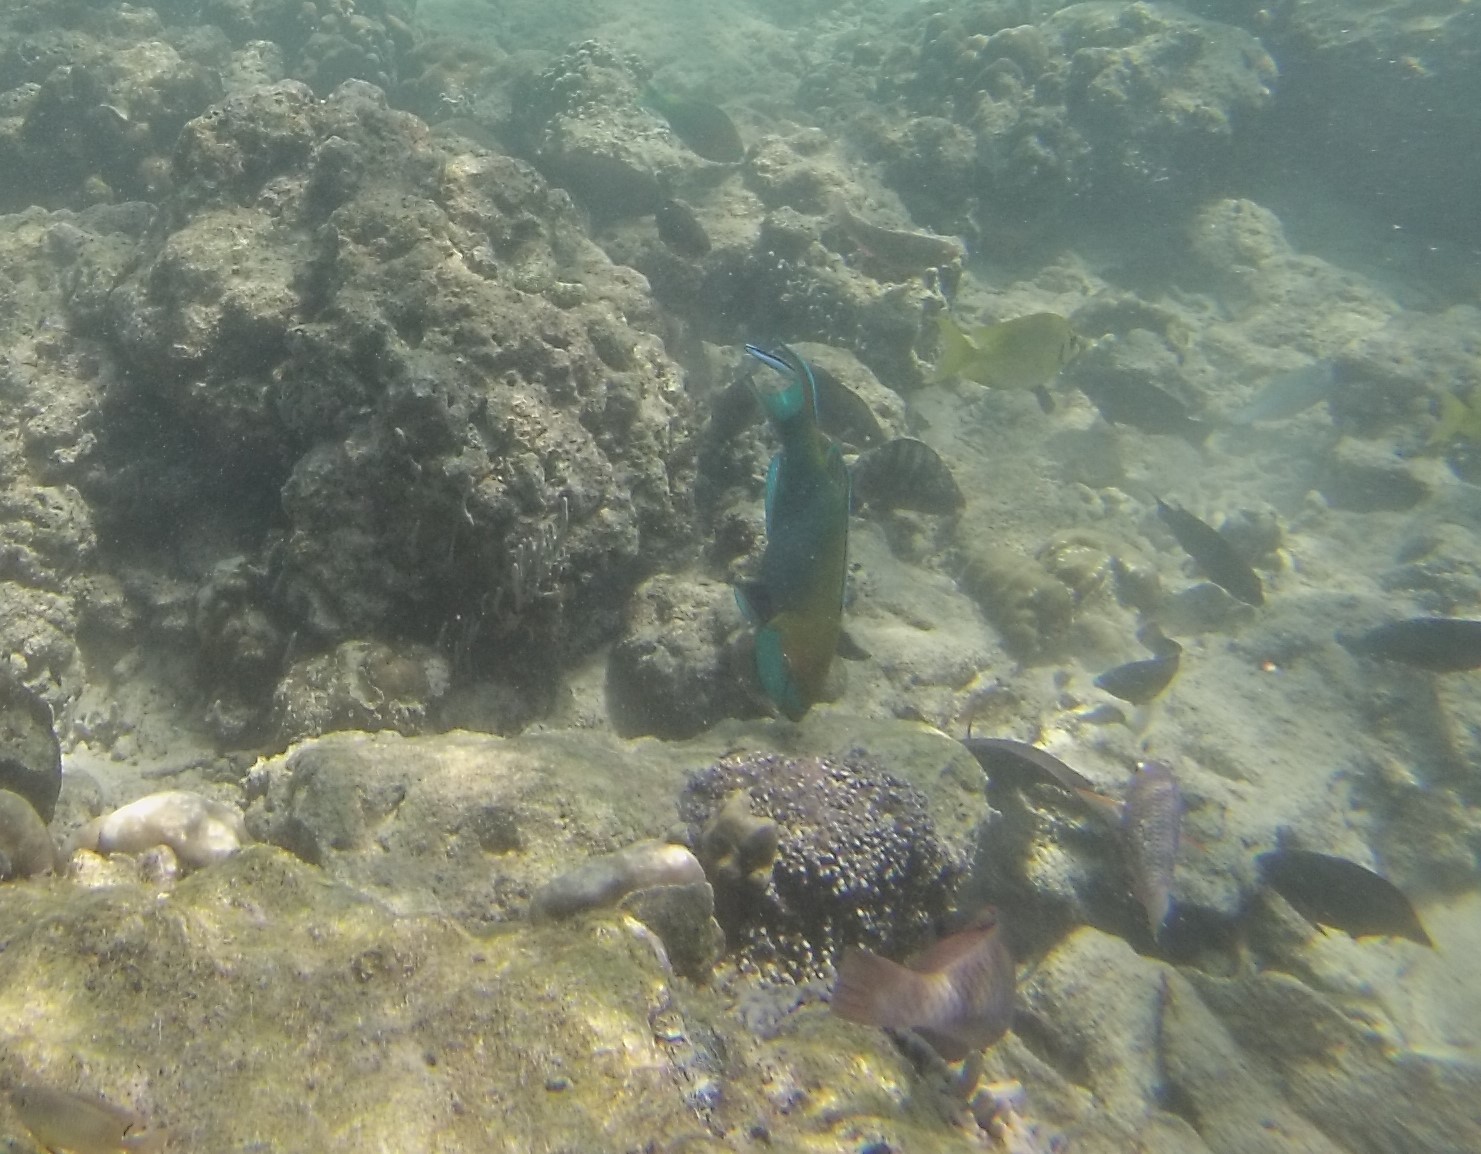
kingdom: Animalia
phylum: Chordata
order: Perciformes
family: Scaridae
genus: Scarus
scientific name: Scarus prasiognathos
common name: Singapore parrotfish
